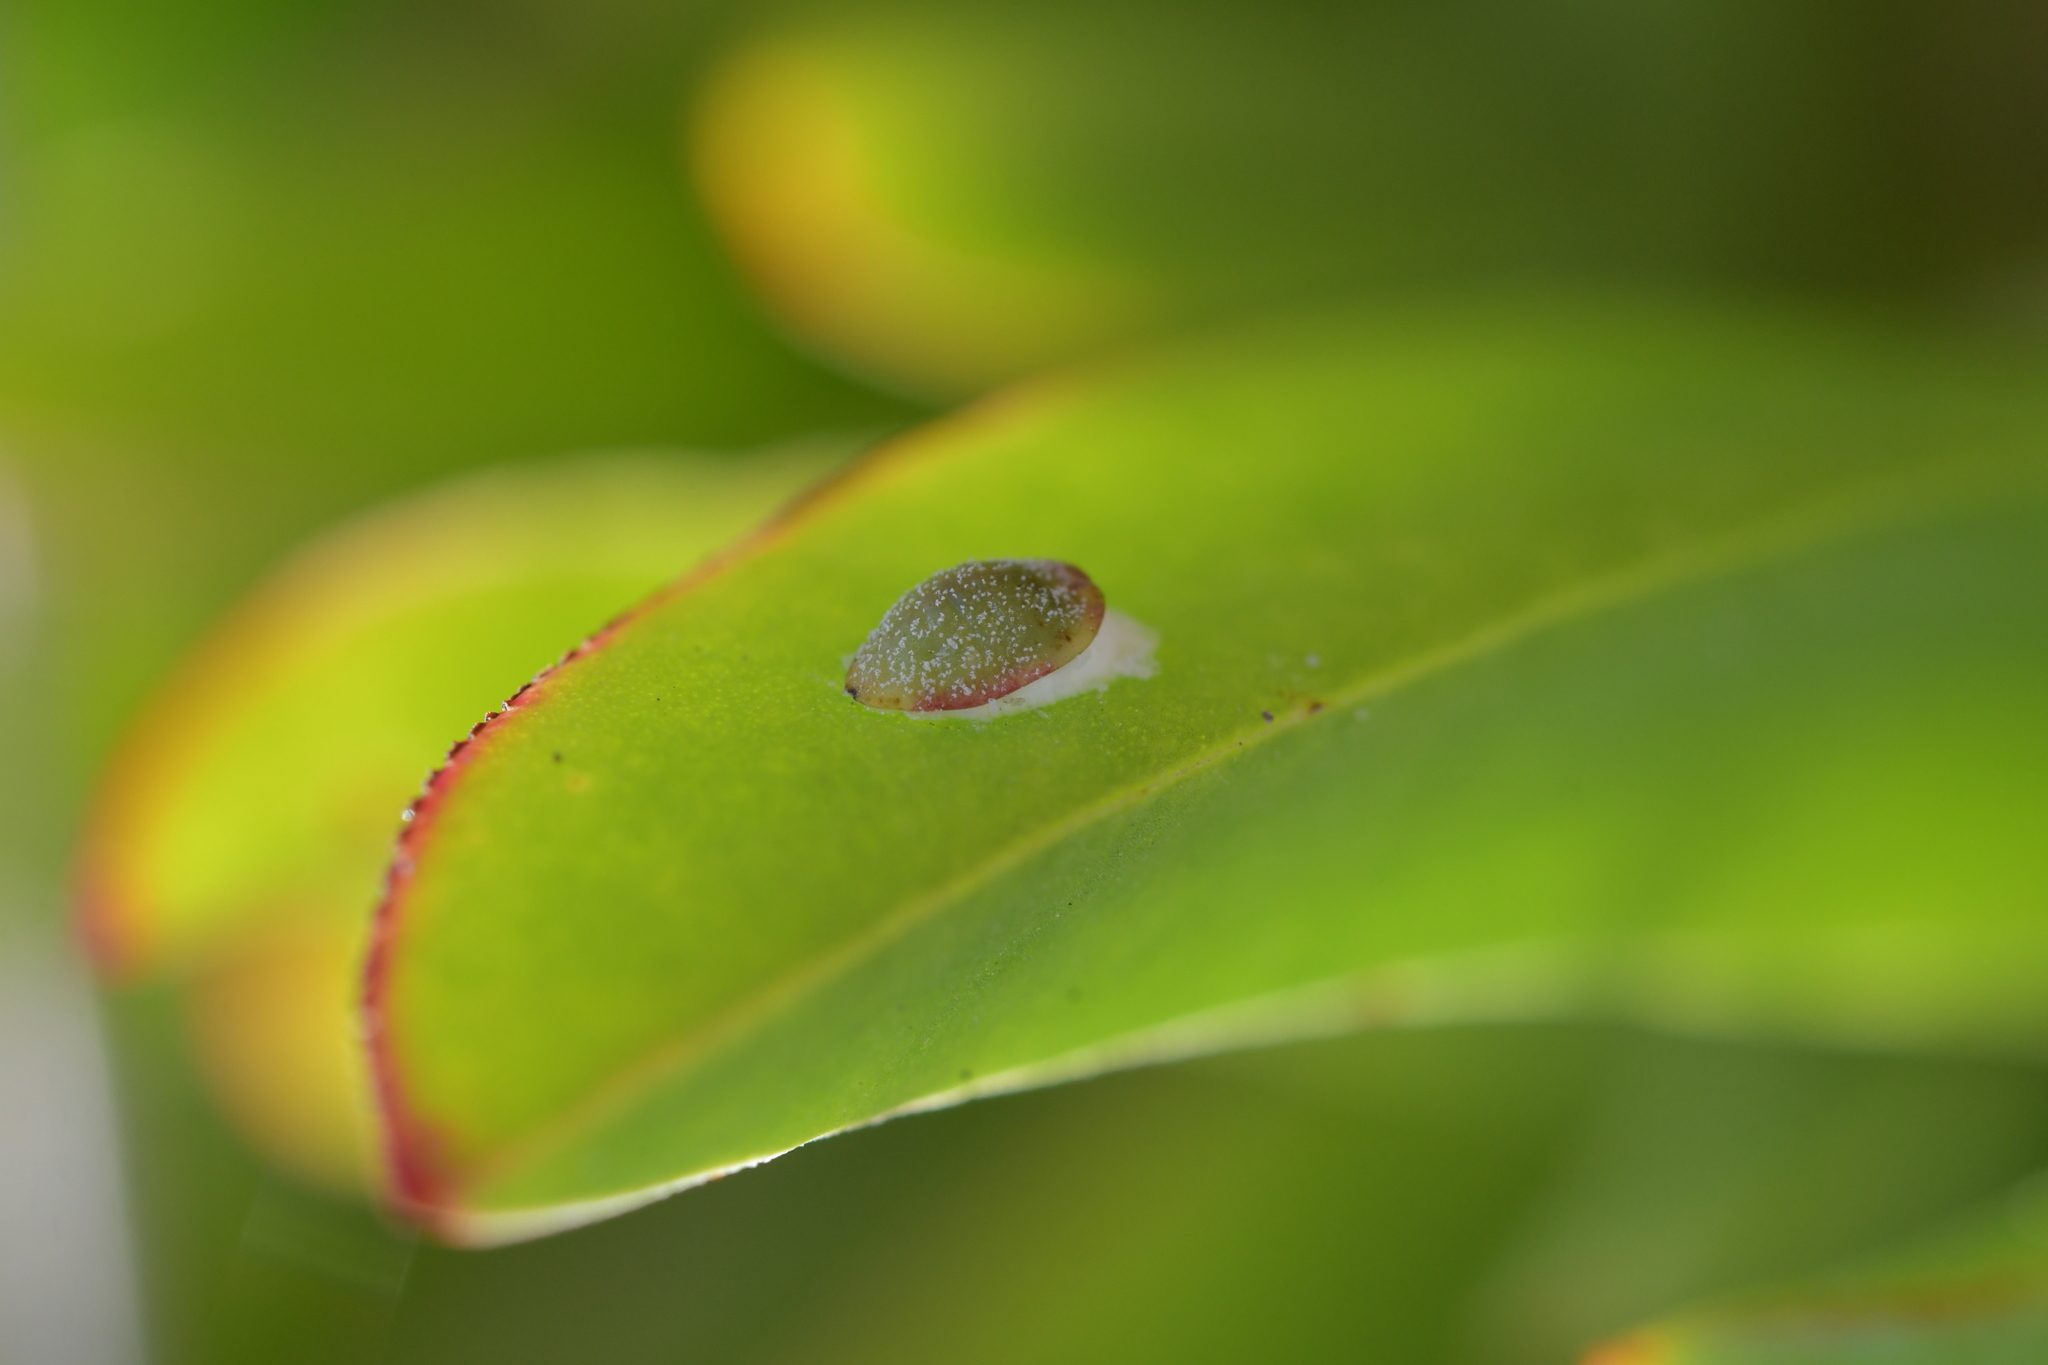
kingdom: Animalia
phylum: Arthropoda
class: Insecta
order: Hemiptera
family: Coccidae
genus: Pulvinariella
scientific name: Pulvinariella mesembryanthemi
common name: Cottony pigface scale
